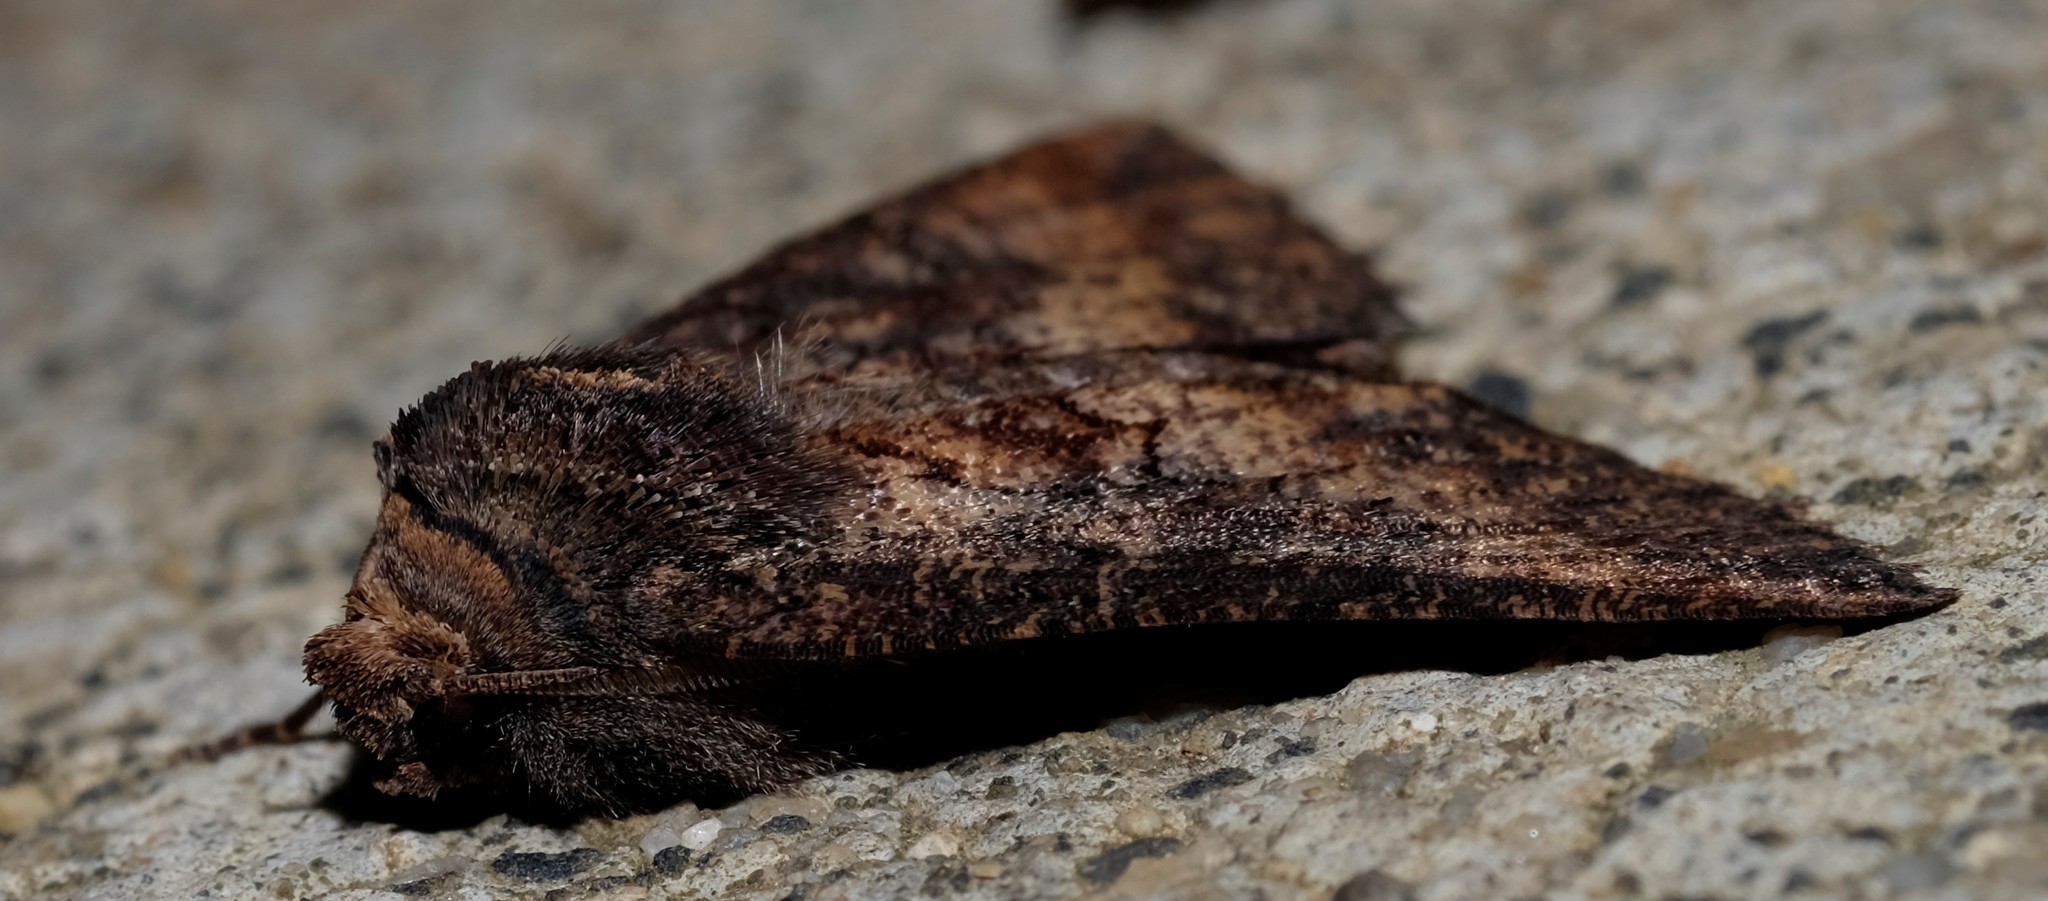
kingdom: Animalia
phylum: Arthropoda
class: Insecta
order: Lepidoptera
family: Geometridae
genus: Nisista
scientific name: Nisista serrata
